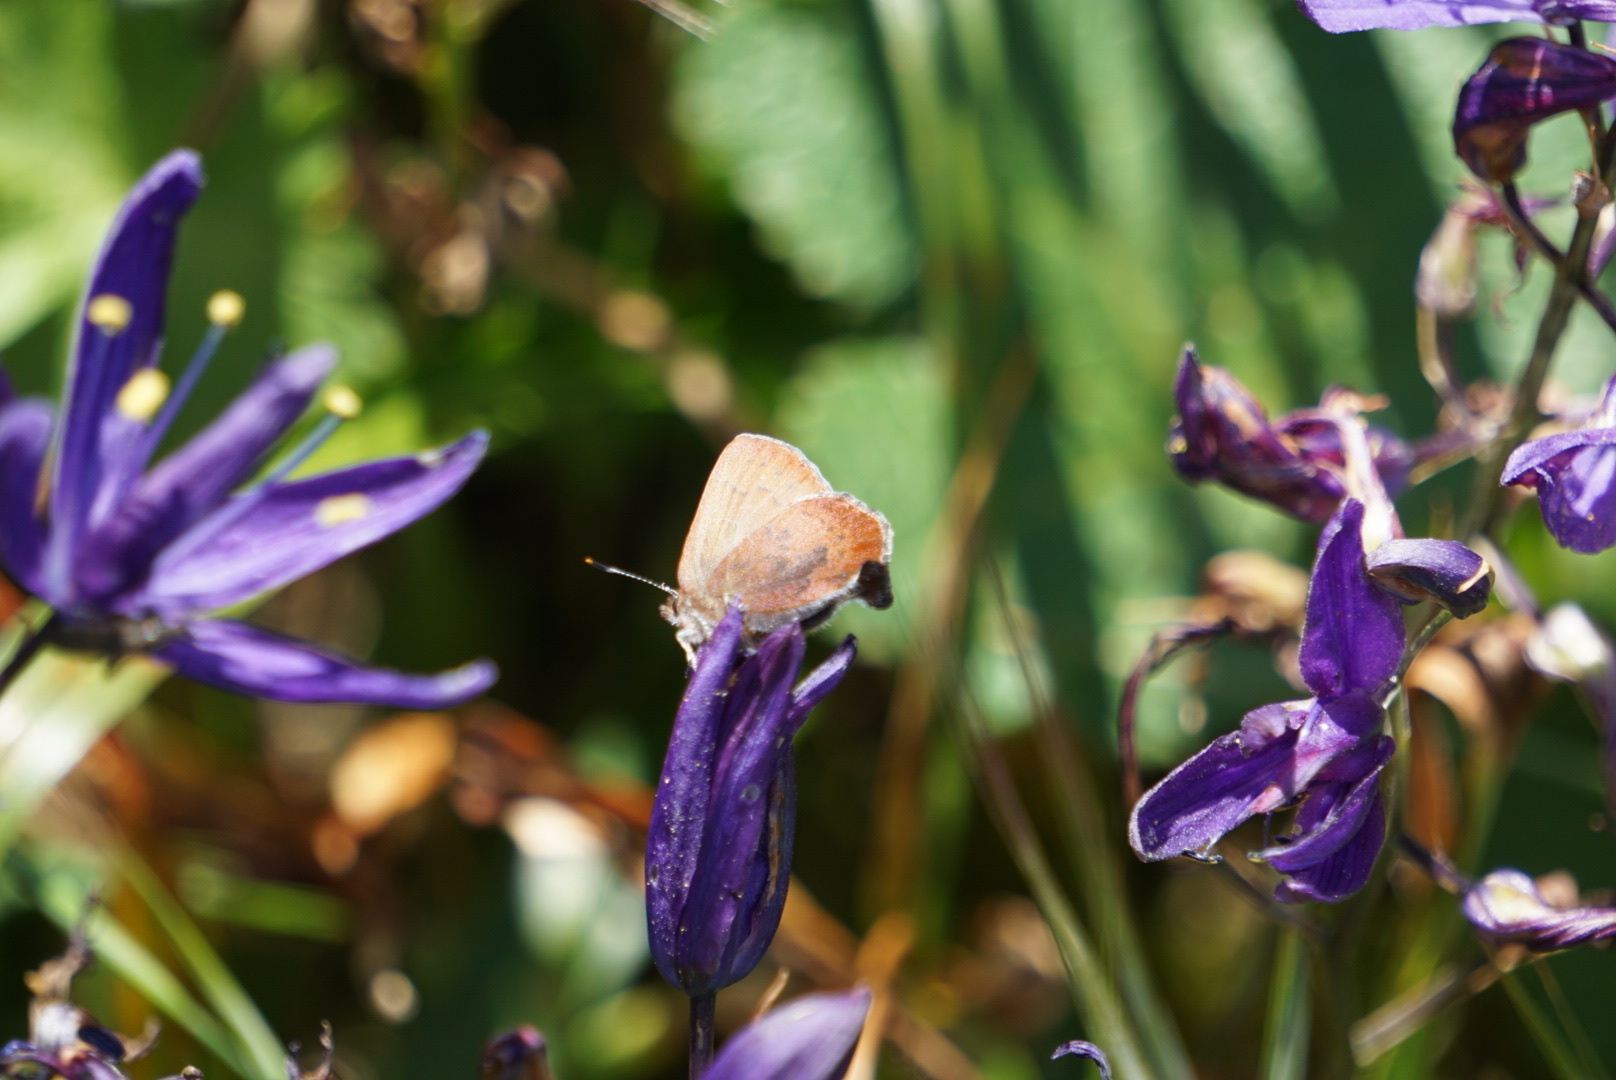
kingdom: Animalia
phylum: Arthropoda
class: Insecta
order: Lepidoptera
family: Lycaenidae
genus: Incisalia
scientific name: Incisalia irioides
